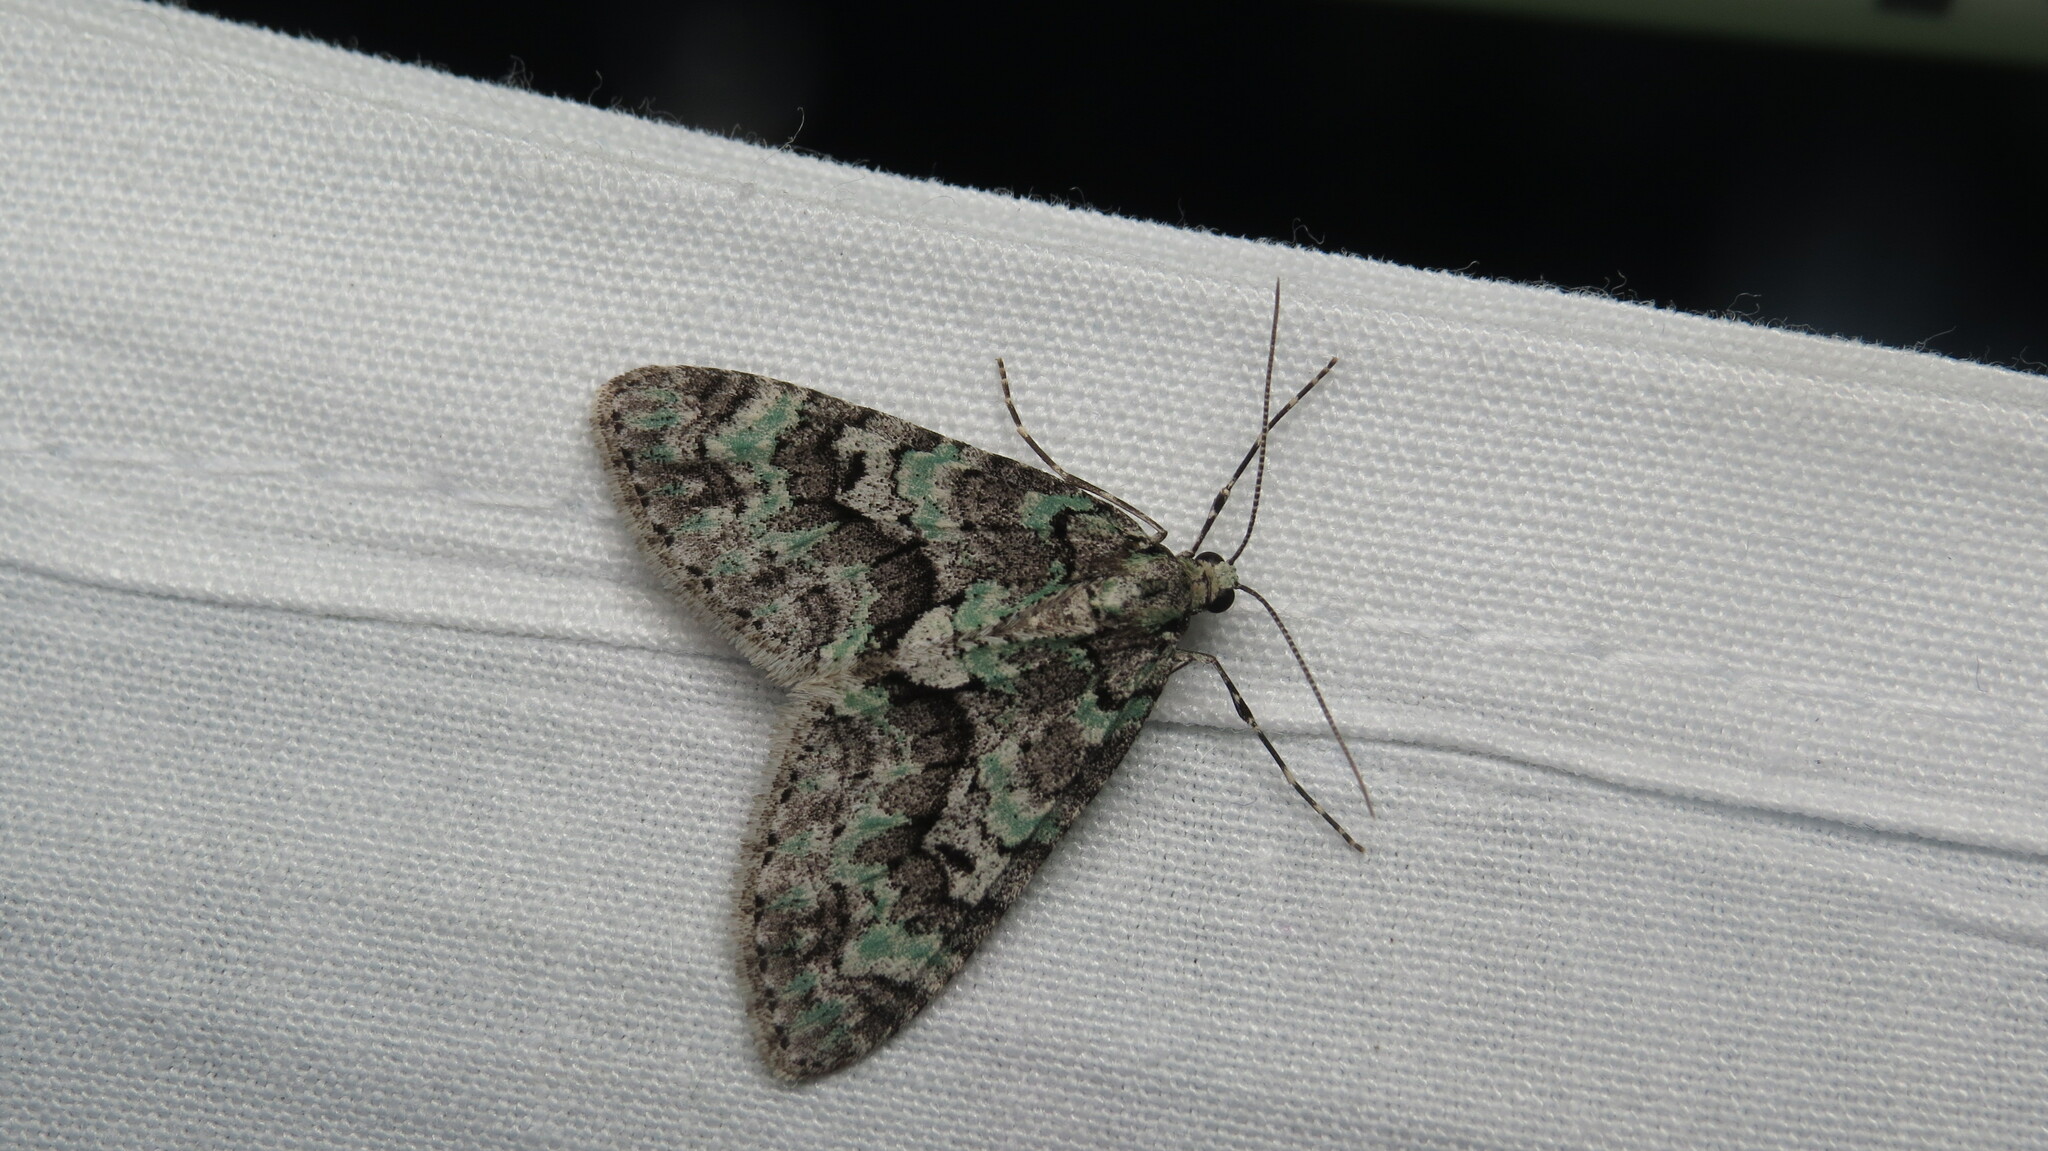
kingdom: Animalia
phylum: Arthropoda
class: Insecta
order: Lepidoptera
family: Geometridae
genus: Cladara
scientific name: Cladara limitaria
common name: Mottled gray carpet
